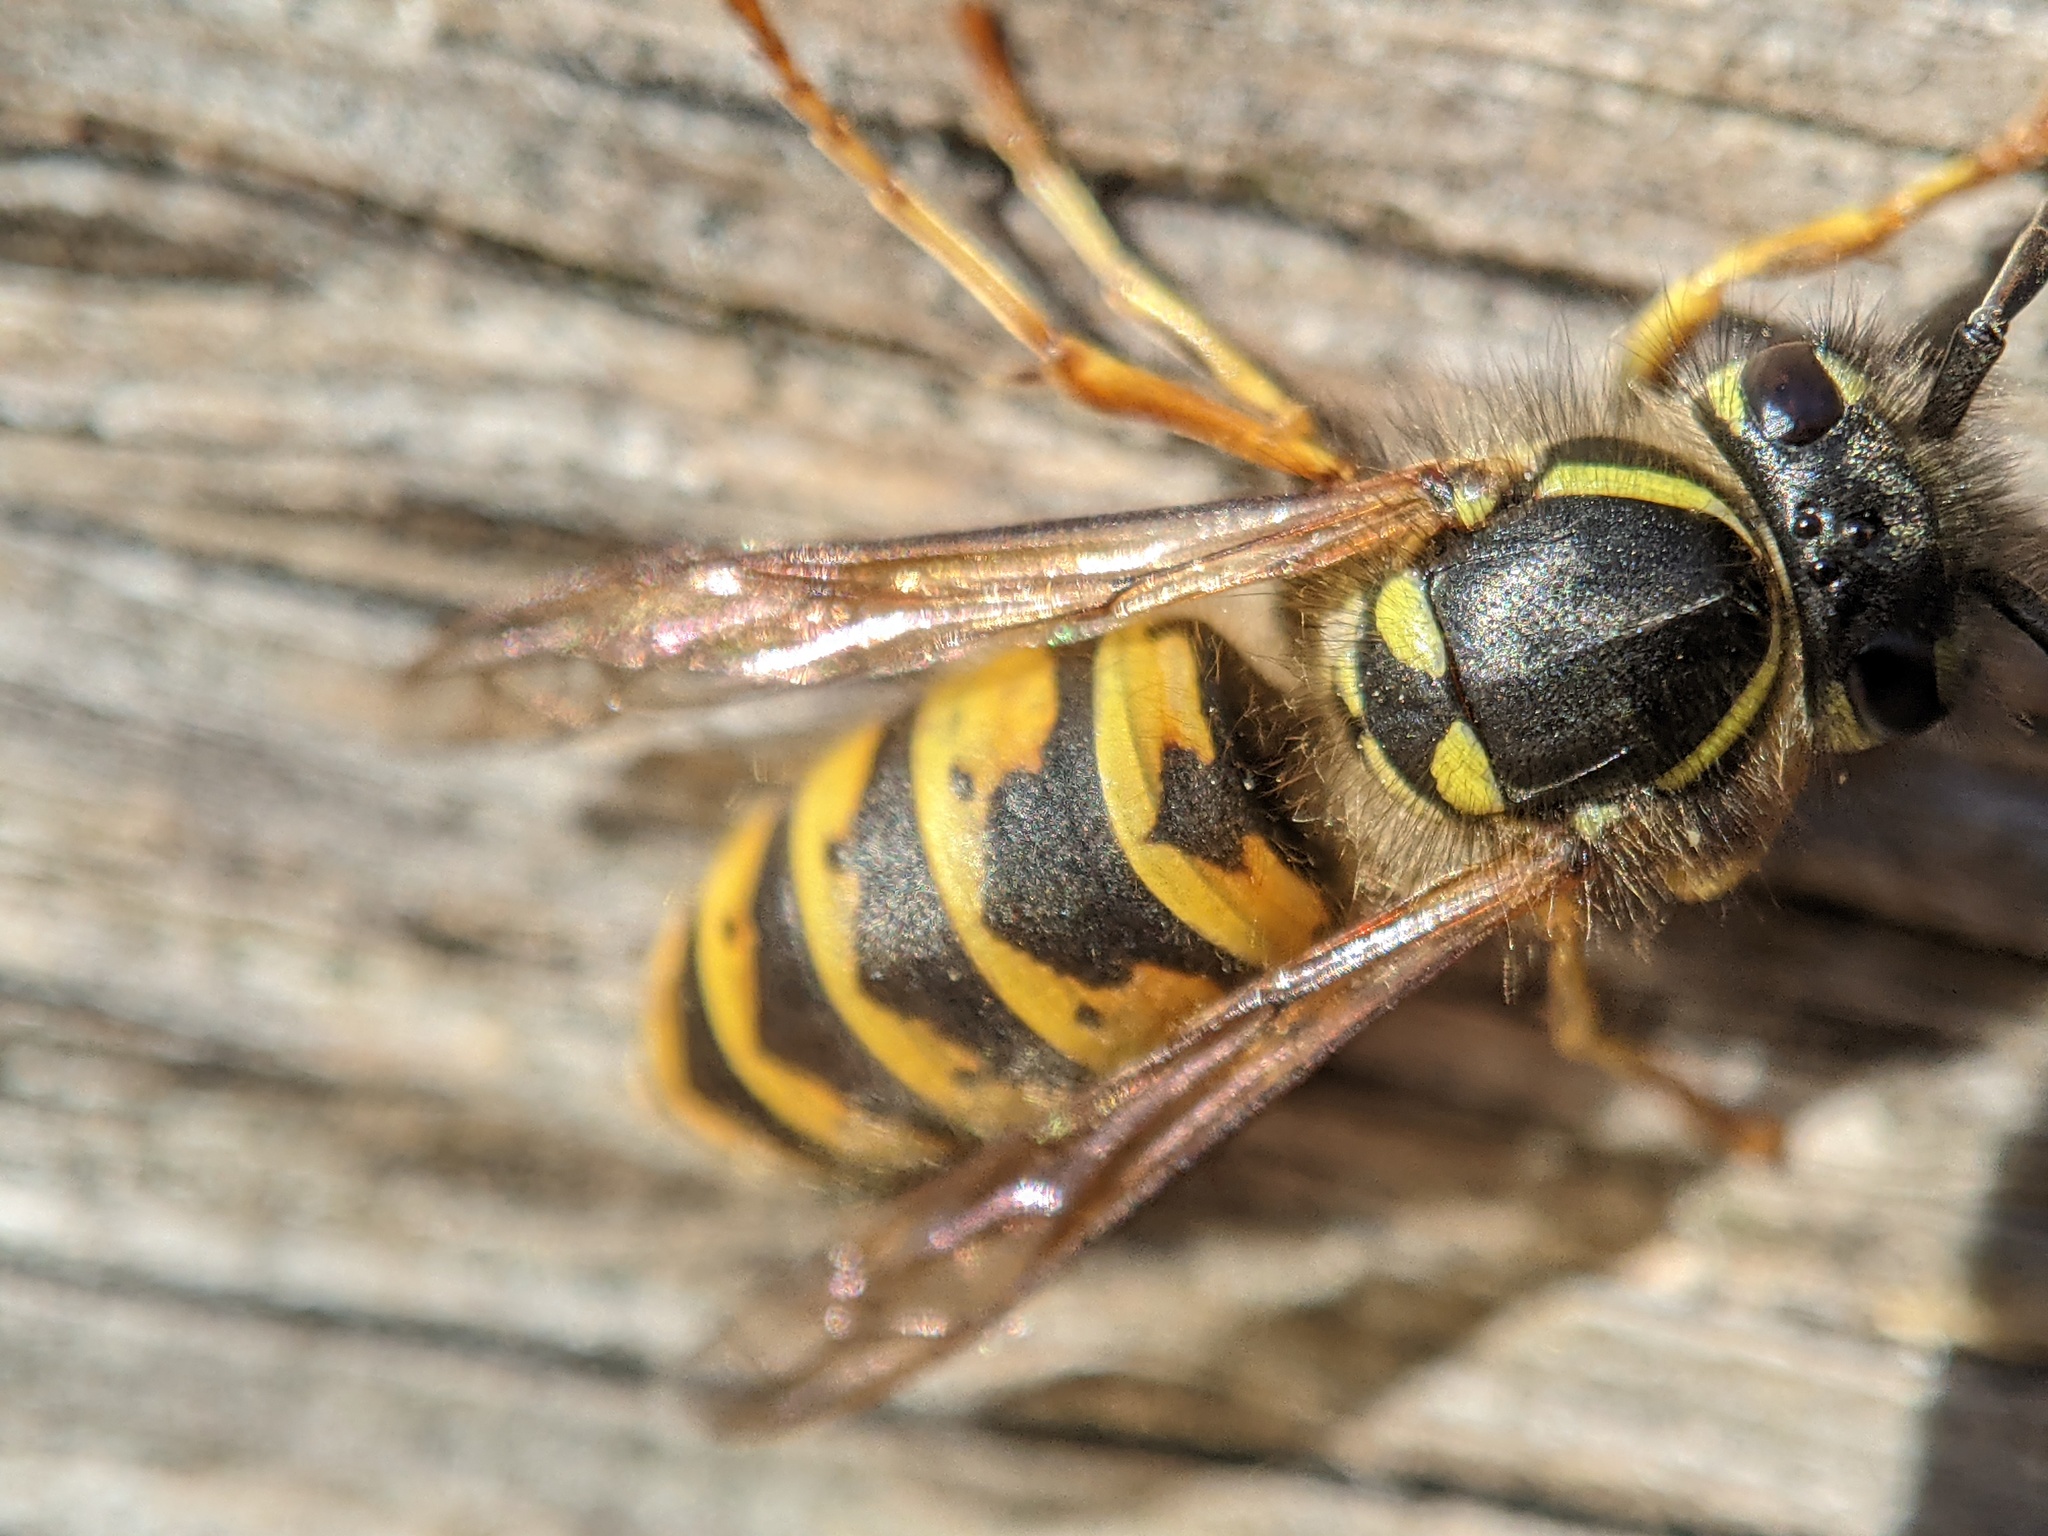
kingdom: Animalia
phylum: Arthropoda
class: Insecta
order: Hymenoptera
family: Vespidae
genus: Vespula
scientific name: Vespula vulgaris
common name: Common wasp
